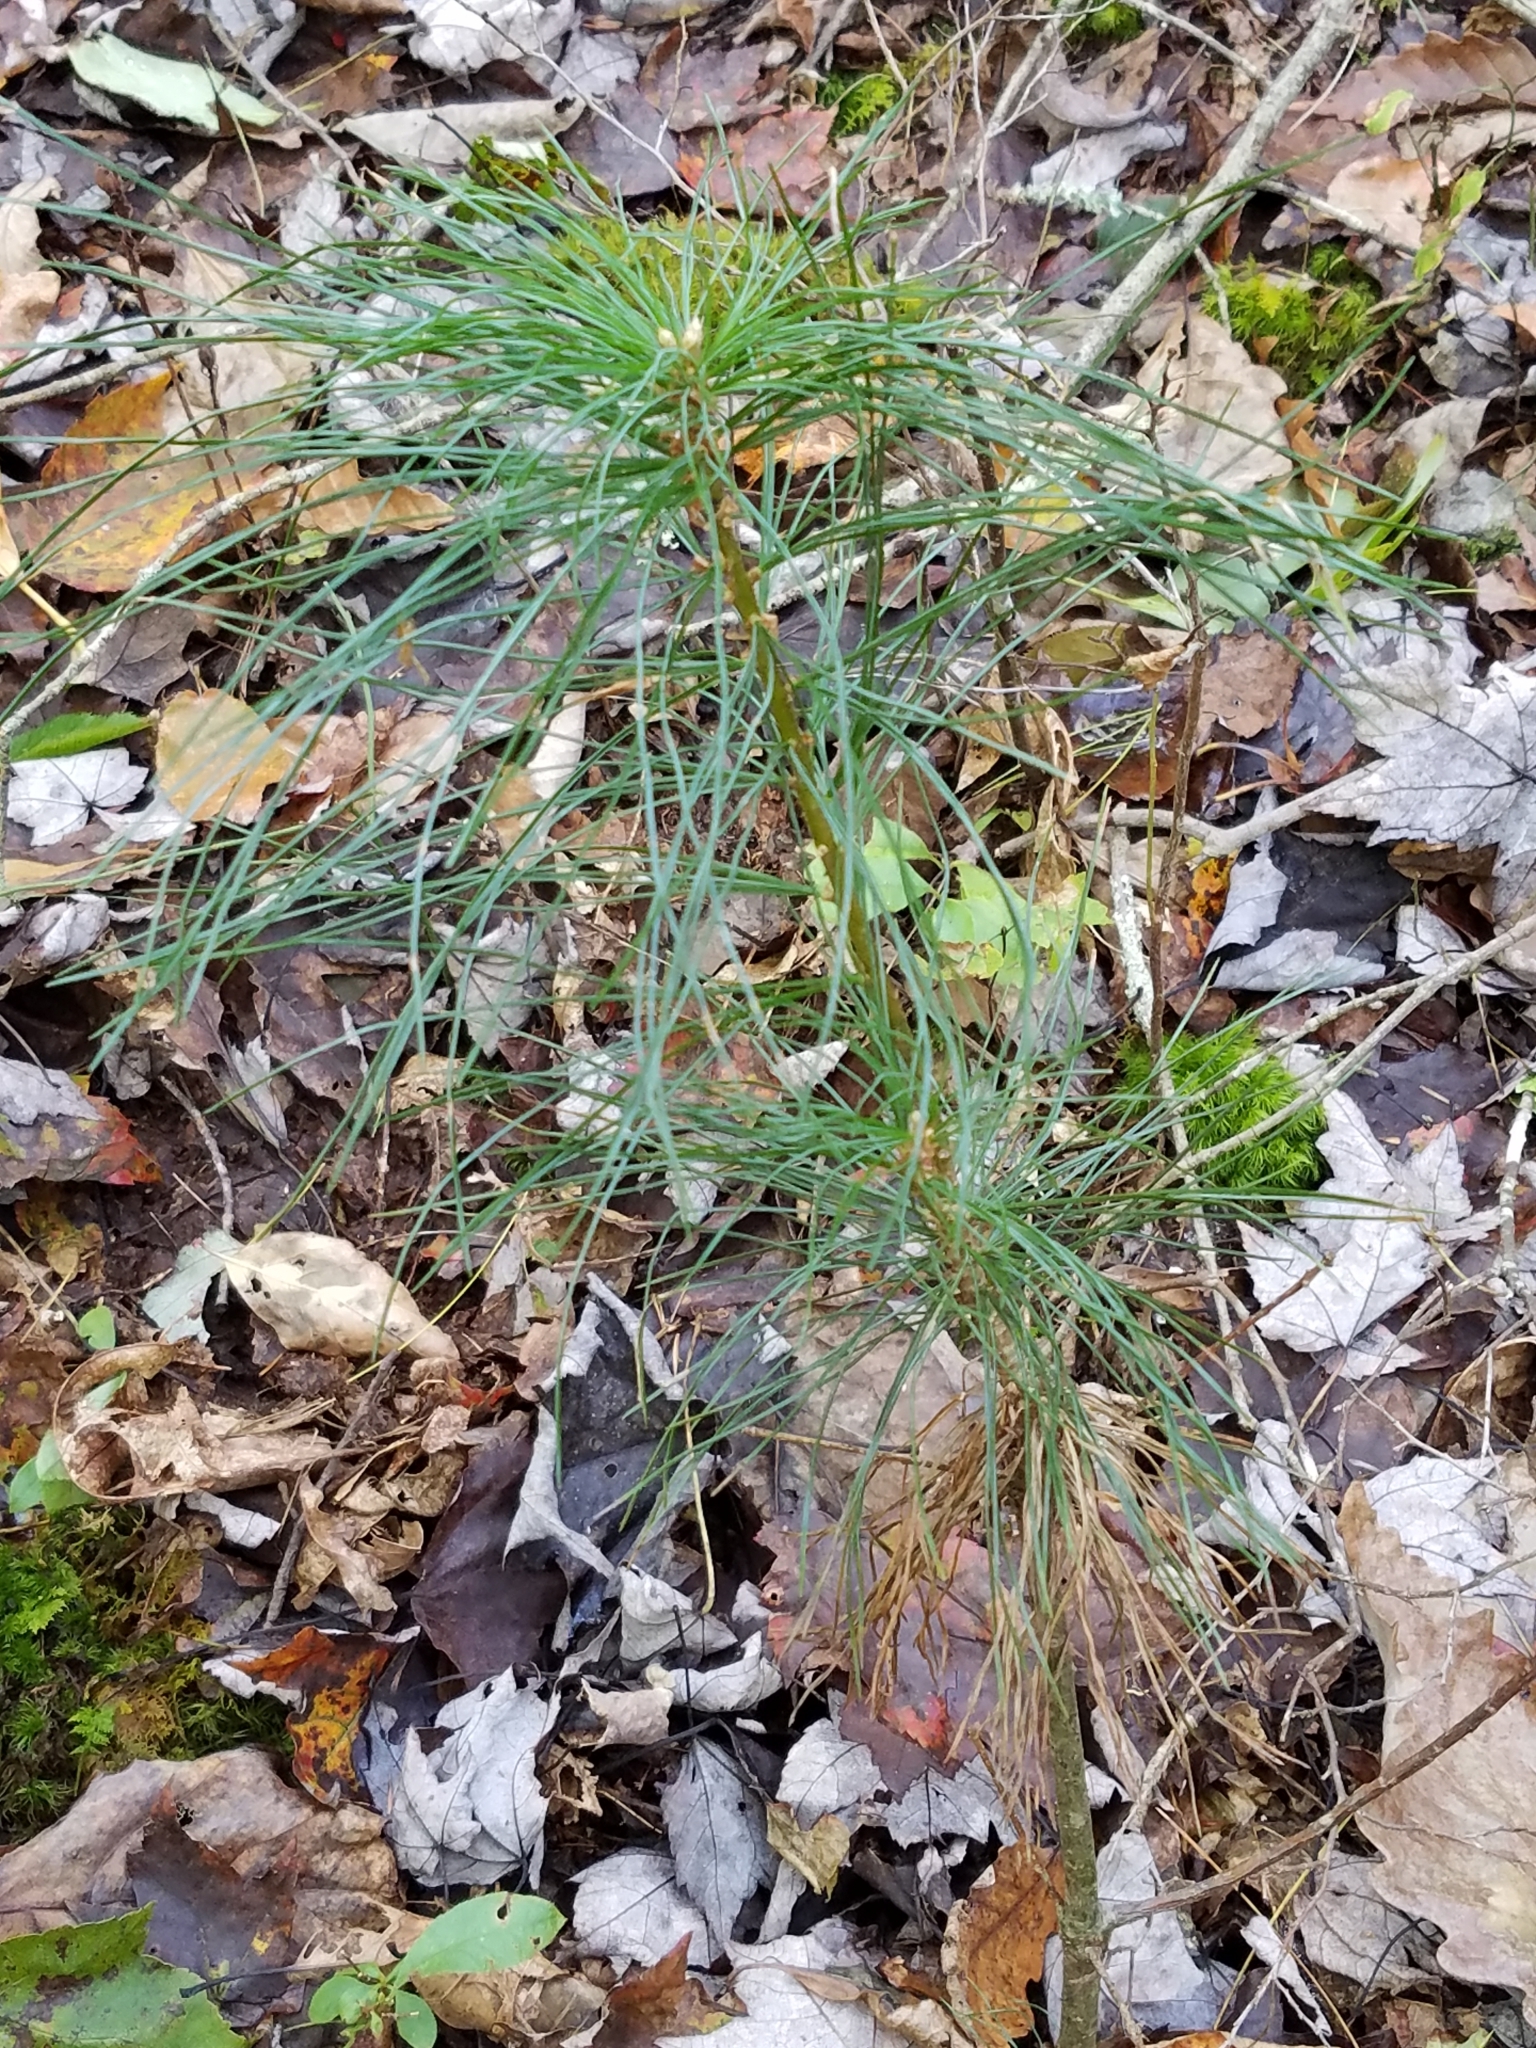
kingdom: Plantae
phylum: Tracheophyta
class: Pinopsida
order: Pinales
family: Pinaceae
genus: Pinus
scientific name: Pinus strobus
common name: Weymouth pine
